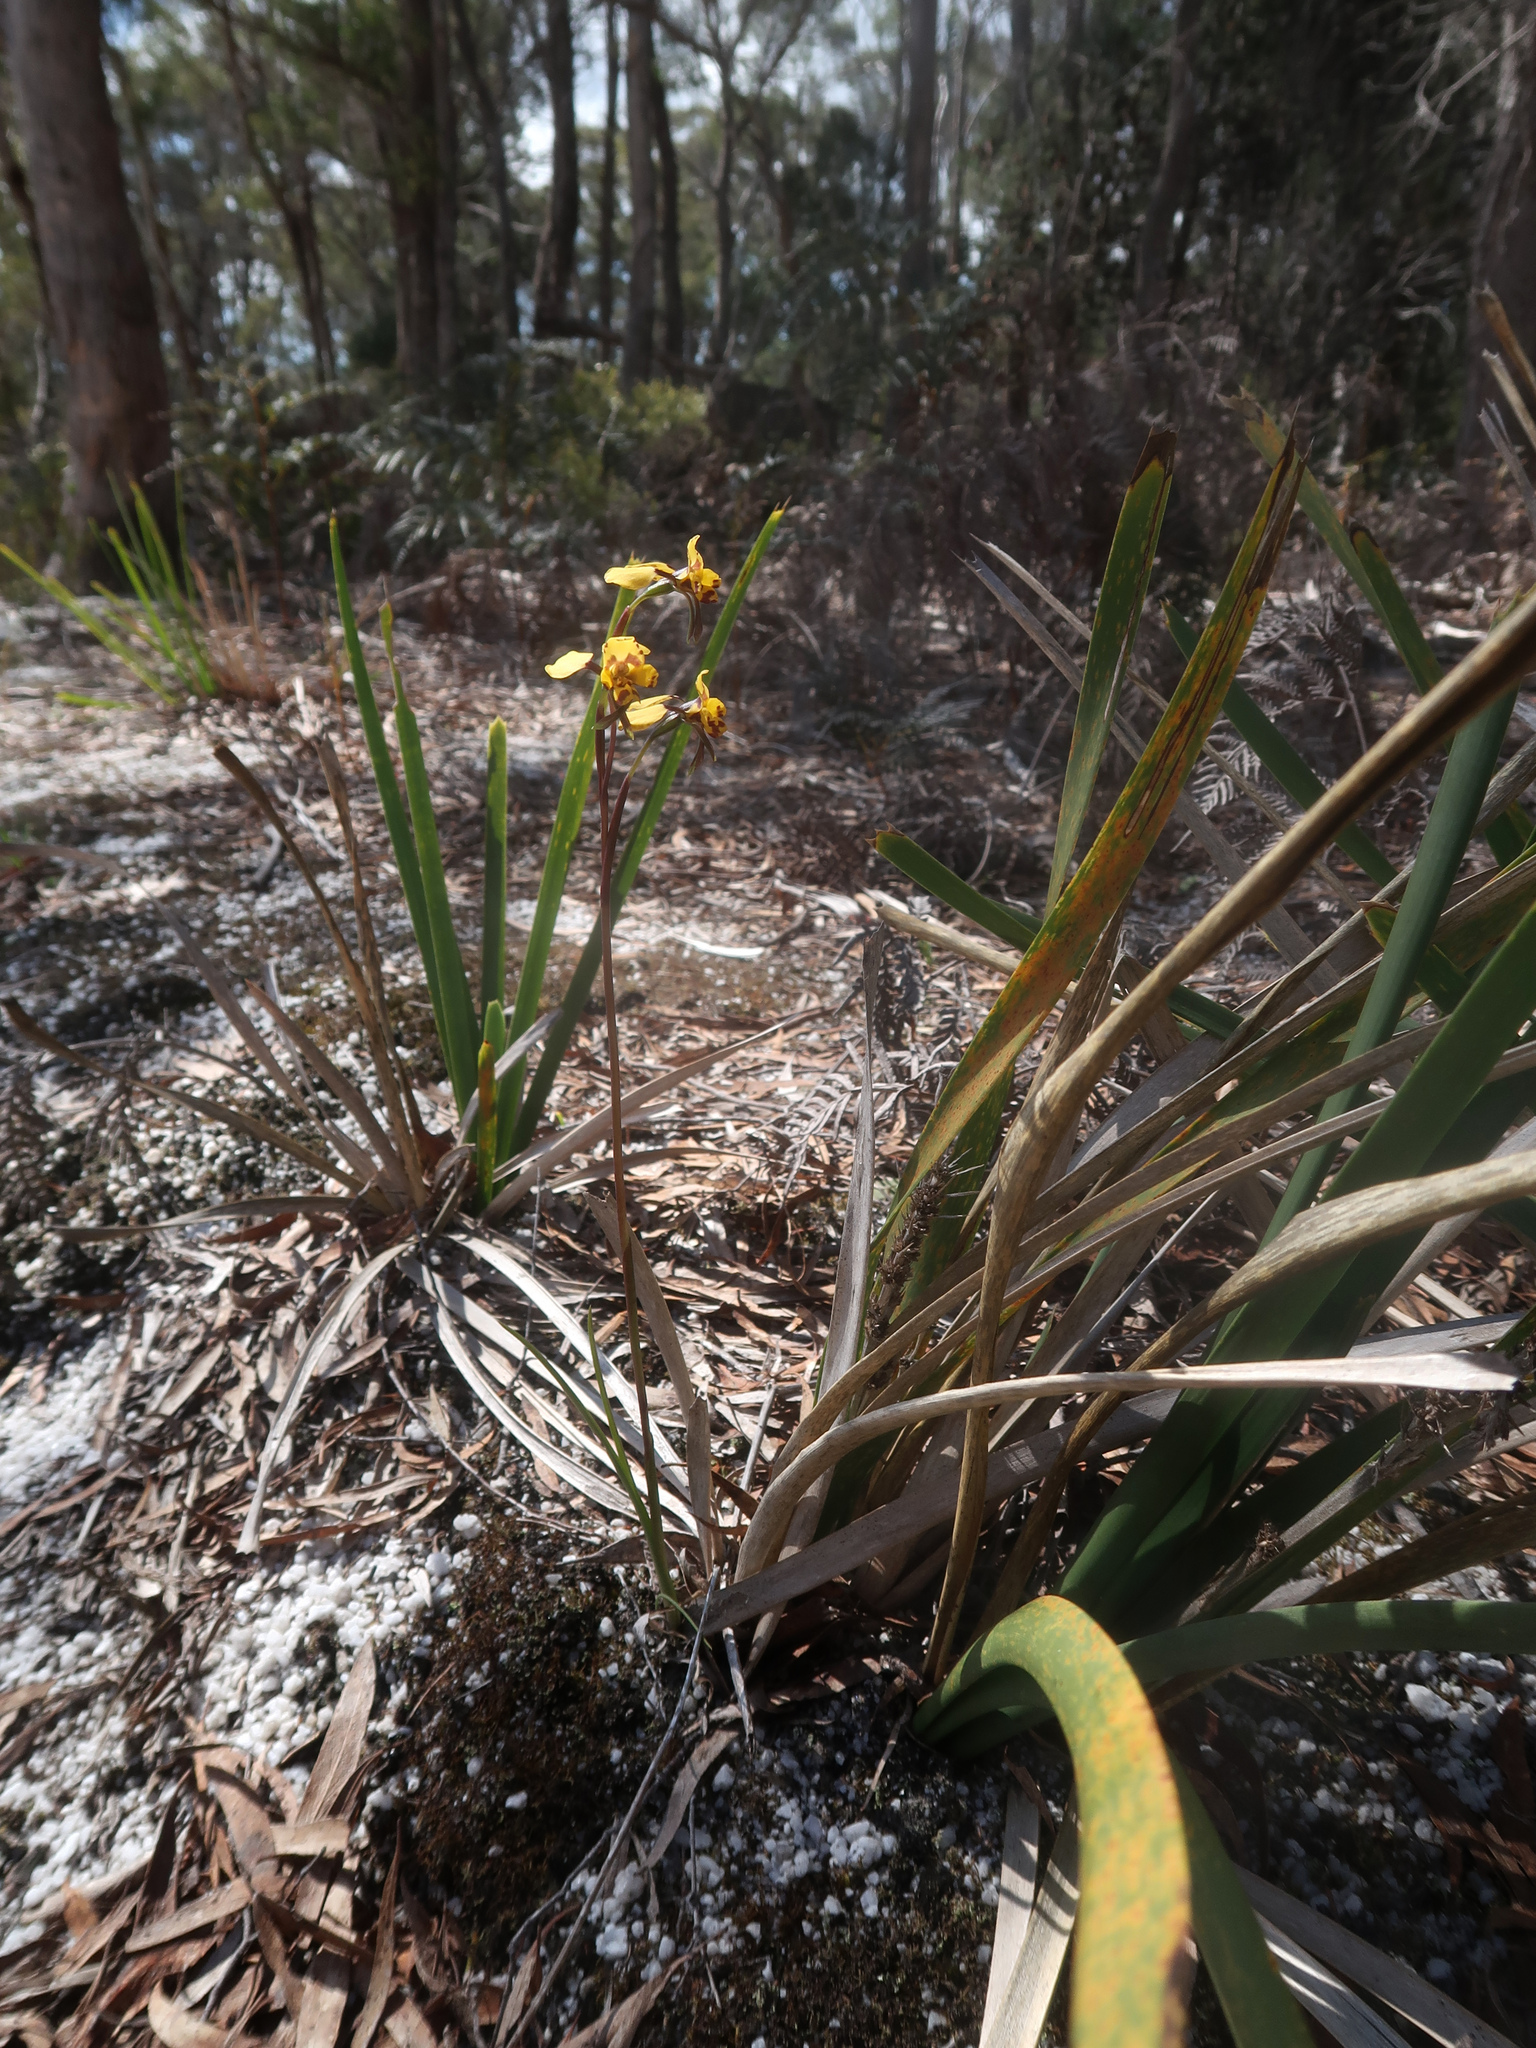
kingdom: Plantae
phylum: Tracheophyta
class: Liliopsida
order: Asparagales
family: Orchidaceae
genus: Diuris
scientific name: Diuris pardina
